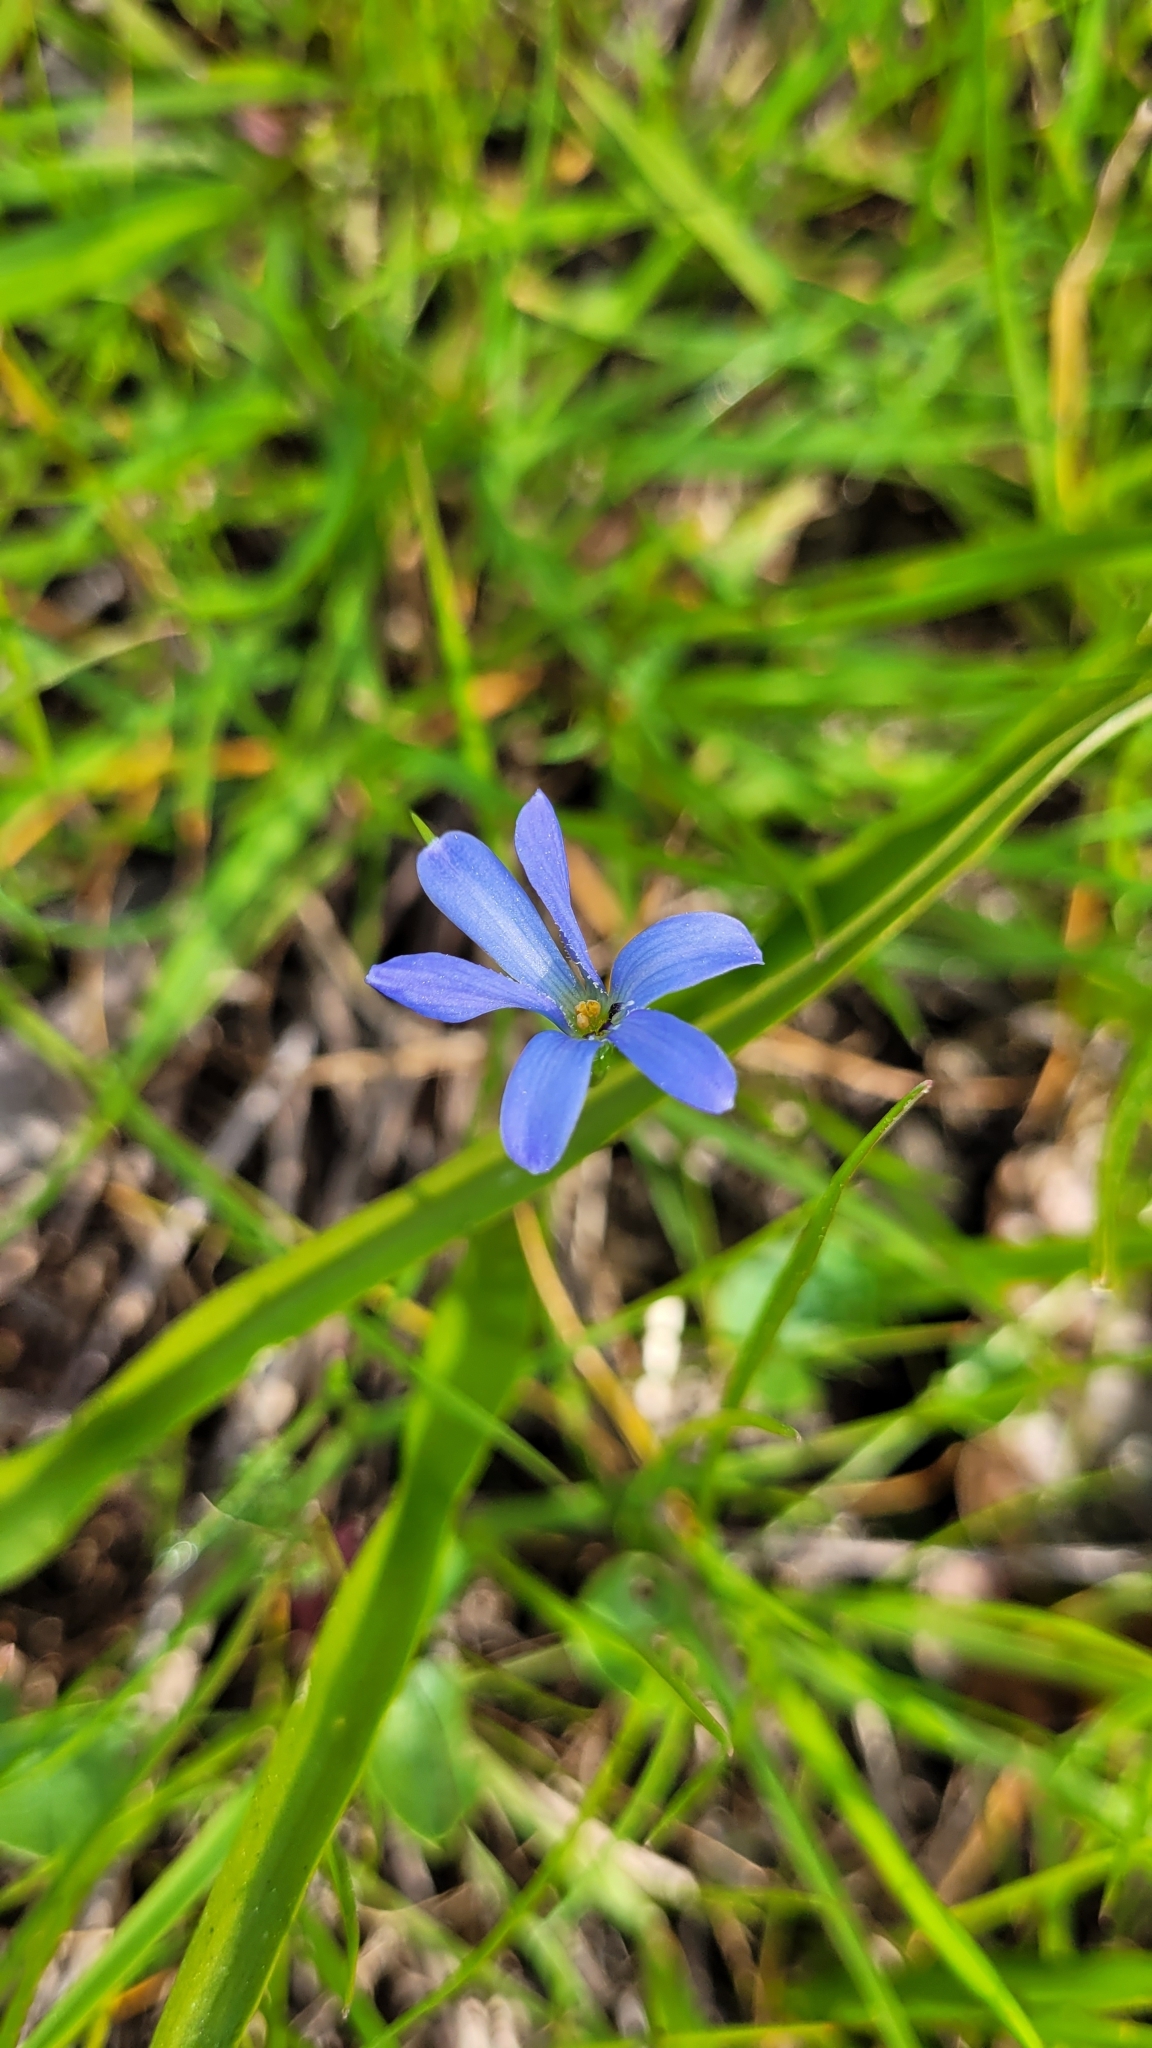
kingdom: Plantae
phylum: Tracheophyta
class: Liliopsida
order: Asparagales
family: Tecophilaeaceae
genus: Tecophilaea
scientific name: Tecophilaea violiflora
